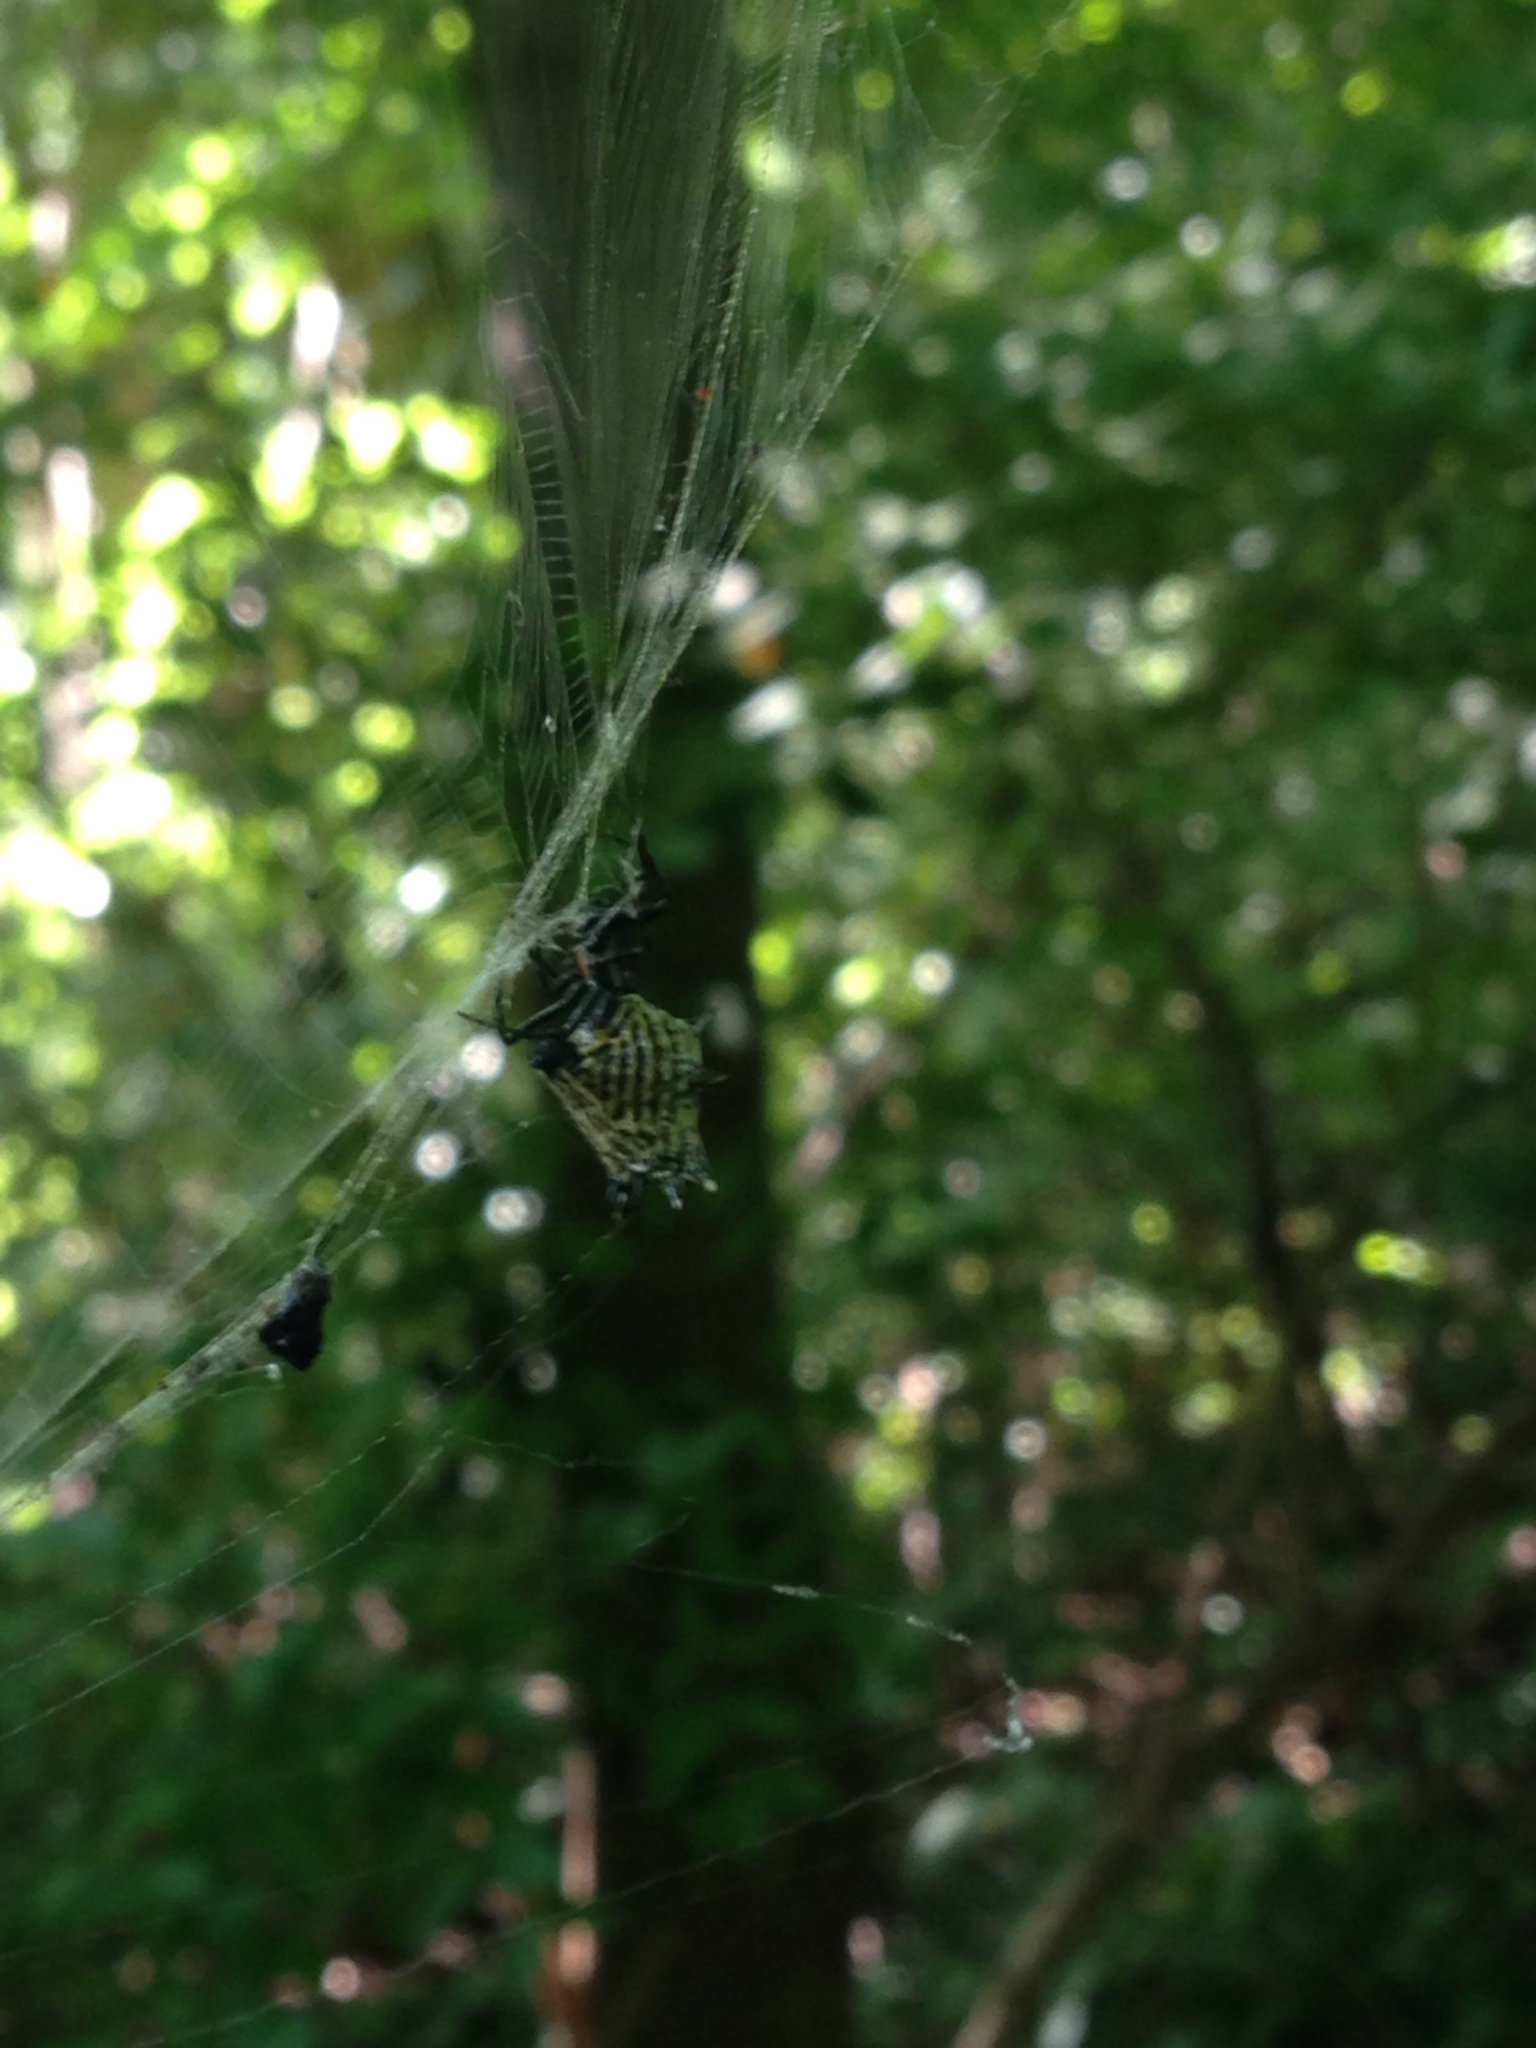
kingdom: Animalia
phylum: Arthropoda
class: Arachnida
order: Araneae
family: Araneidae
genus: Micrathena
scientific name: Micrathena gracilis
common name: Orb weavers
